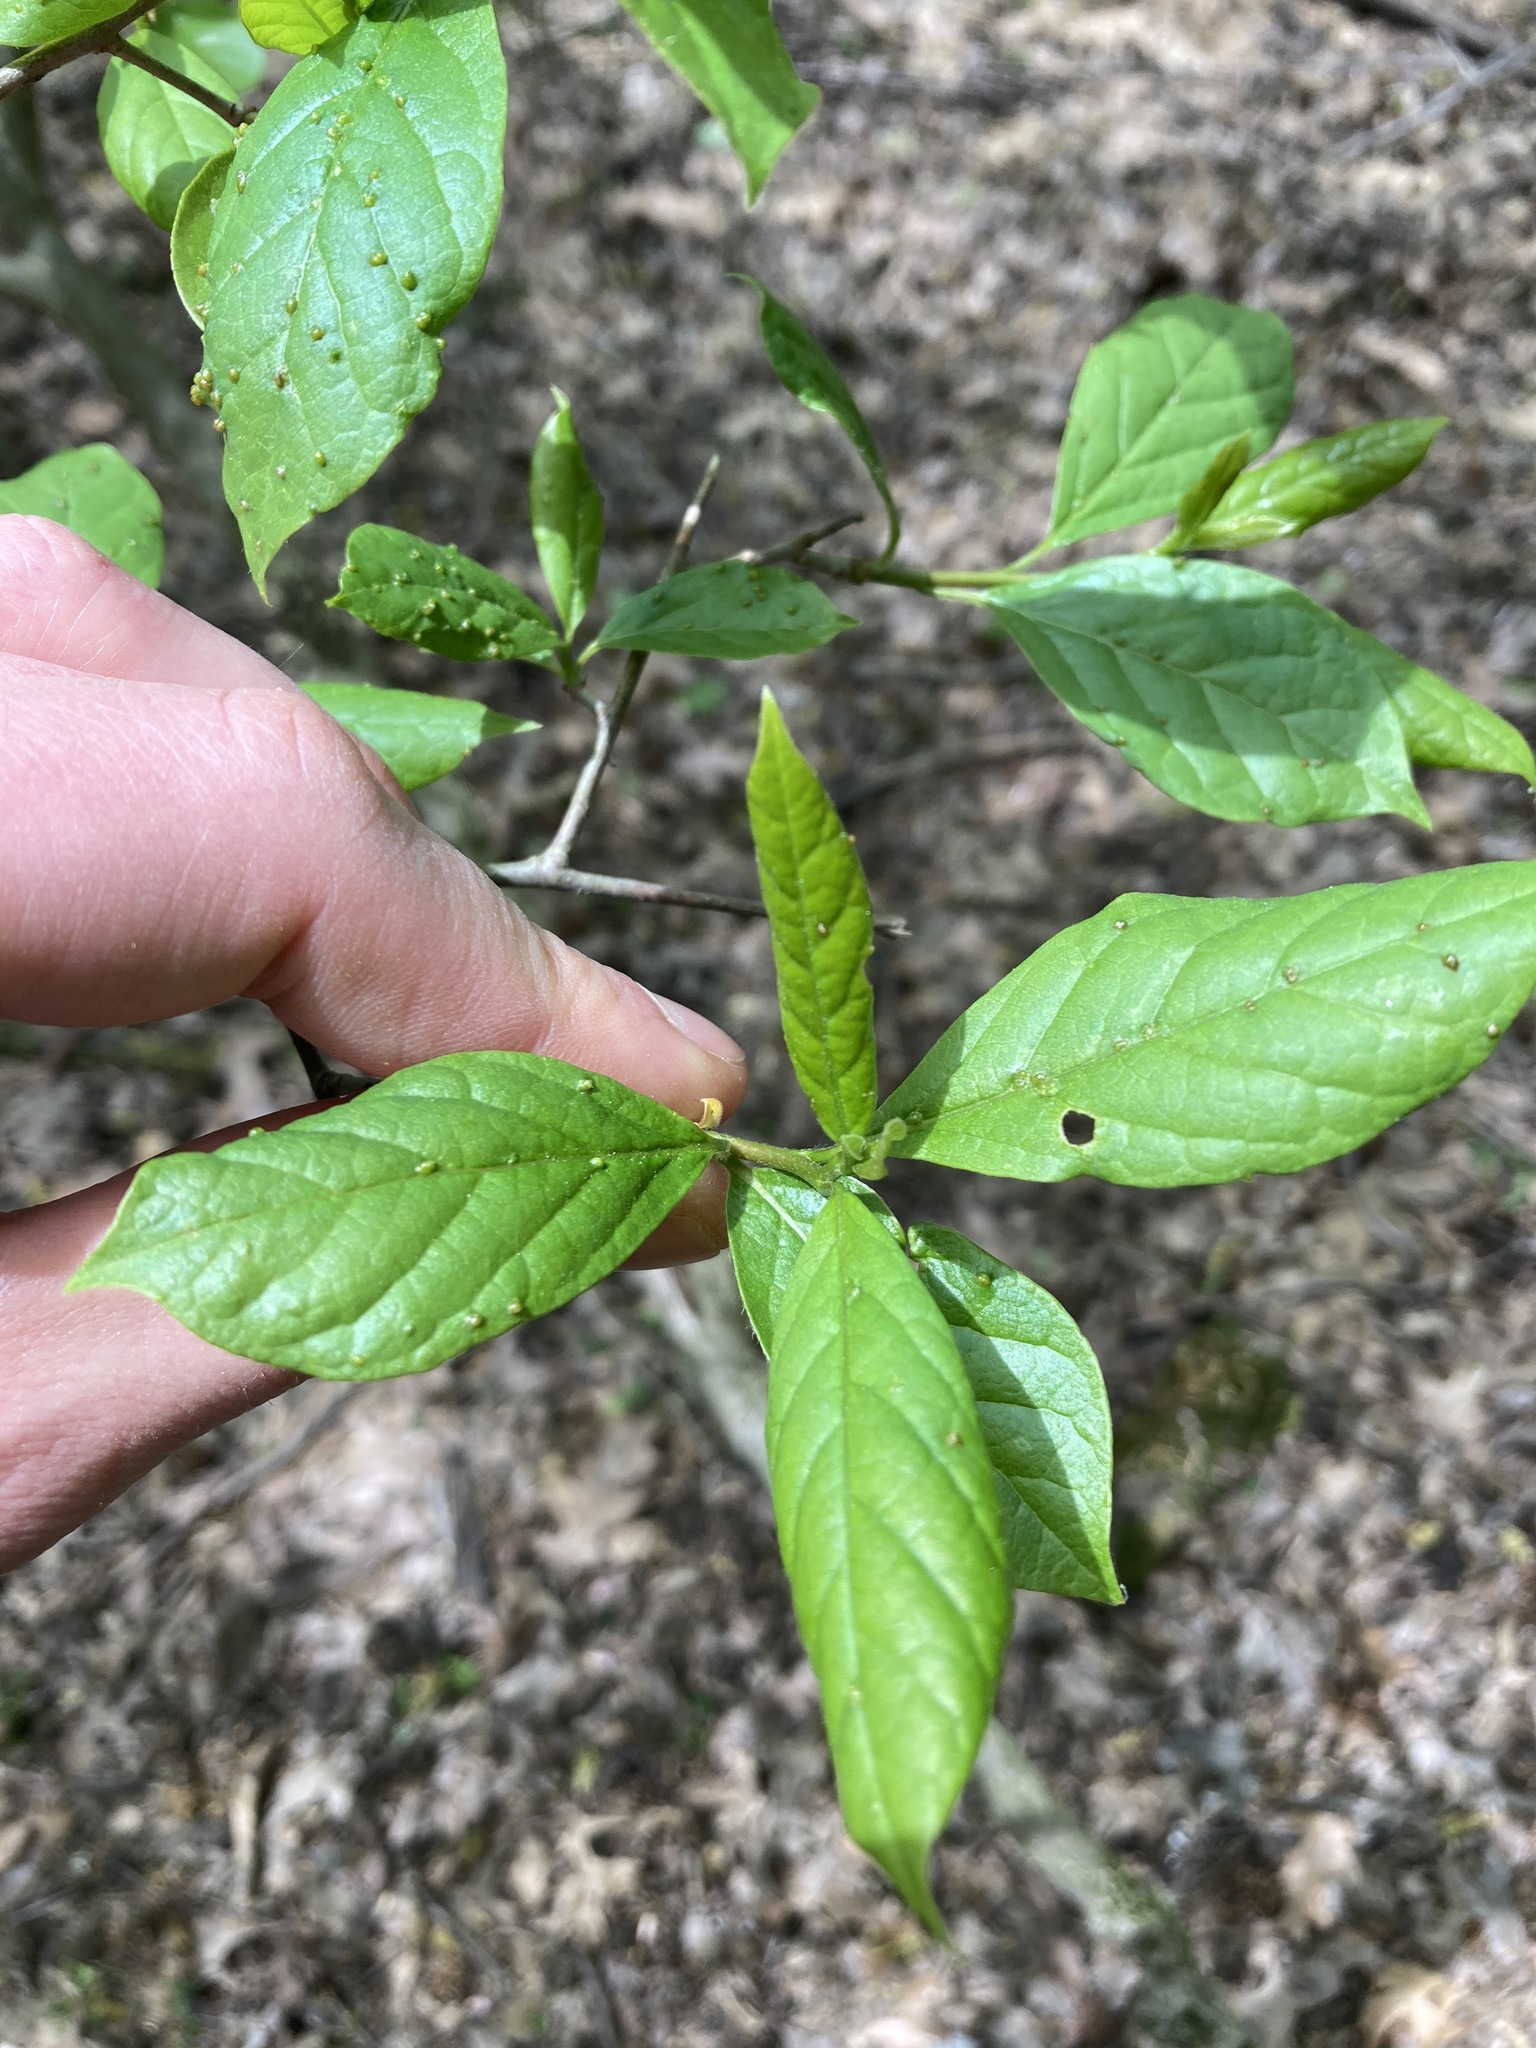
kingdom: Plantae
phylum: Tracheophyta
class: Magnoliopsida
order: Cornales
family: Nyssaceae
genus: Nyssa
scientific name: Nyssa sylvatica
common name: Black tupelo
